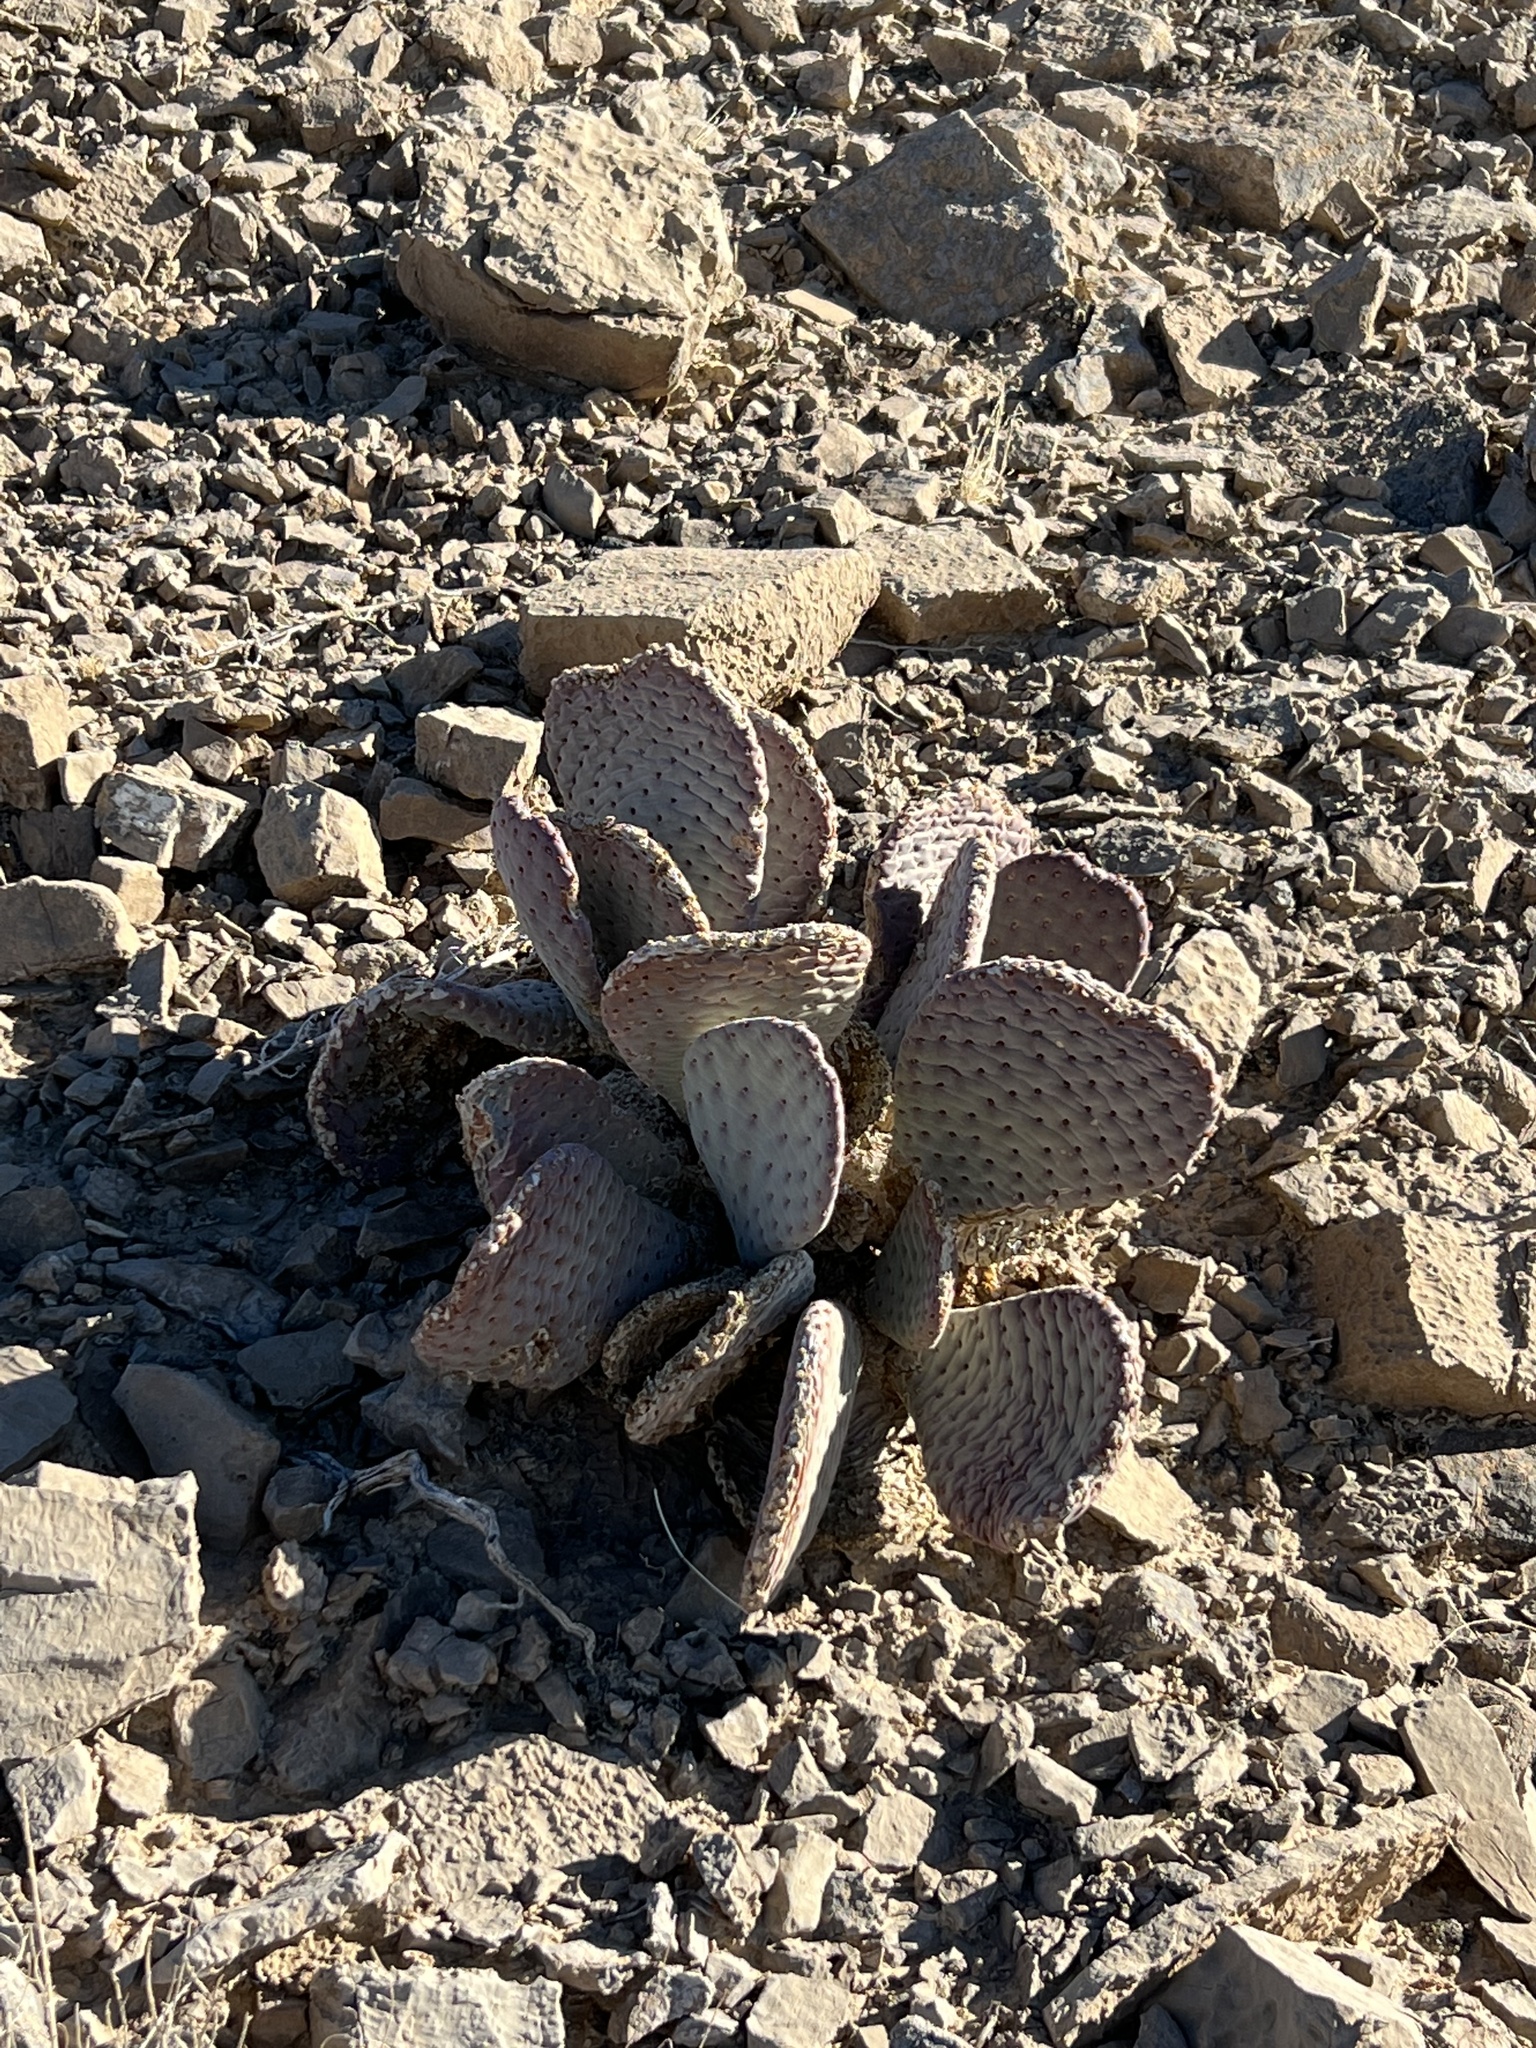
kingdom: Plantae
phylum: Tracheophyta
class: Magnoliopsida
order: Caryophyllales
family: Cactaceae
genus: Opuntia
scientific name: Opuntia basilaris
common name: Beavertail prickly-pear
